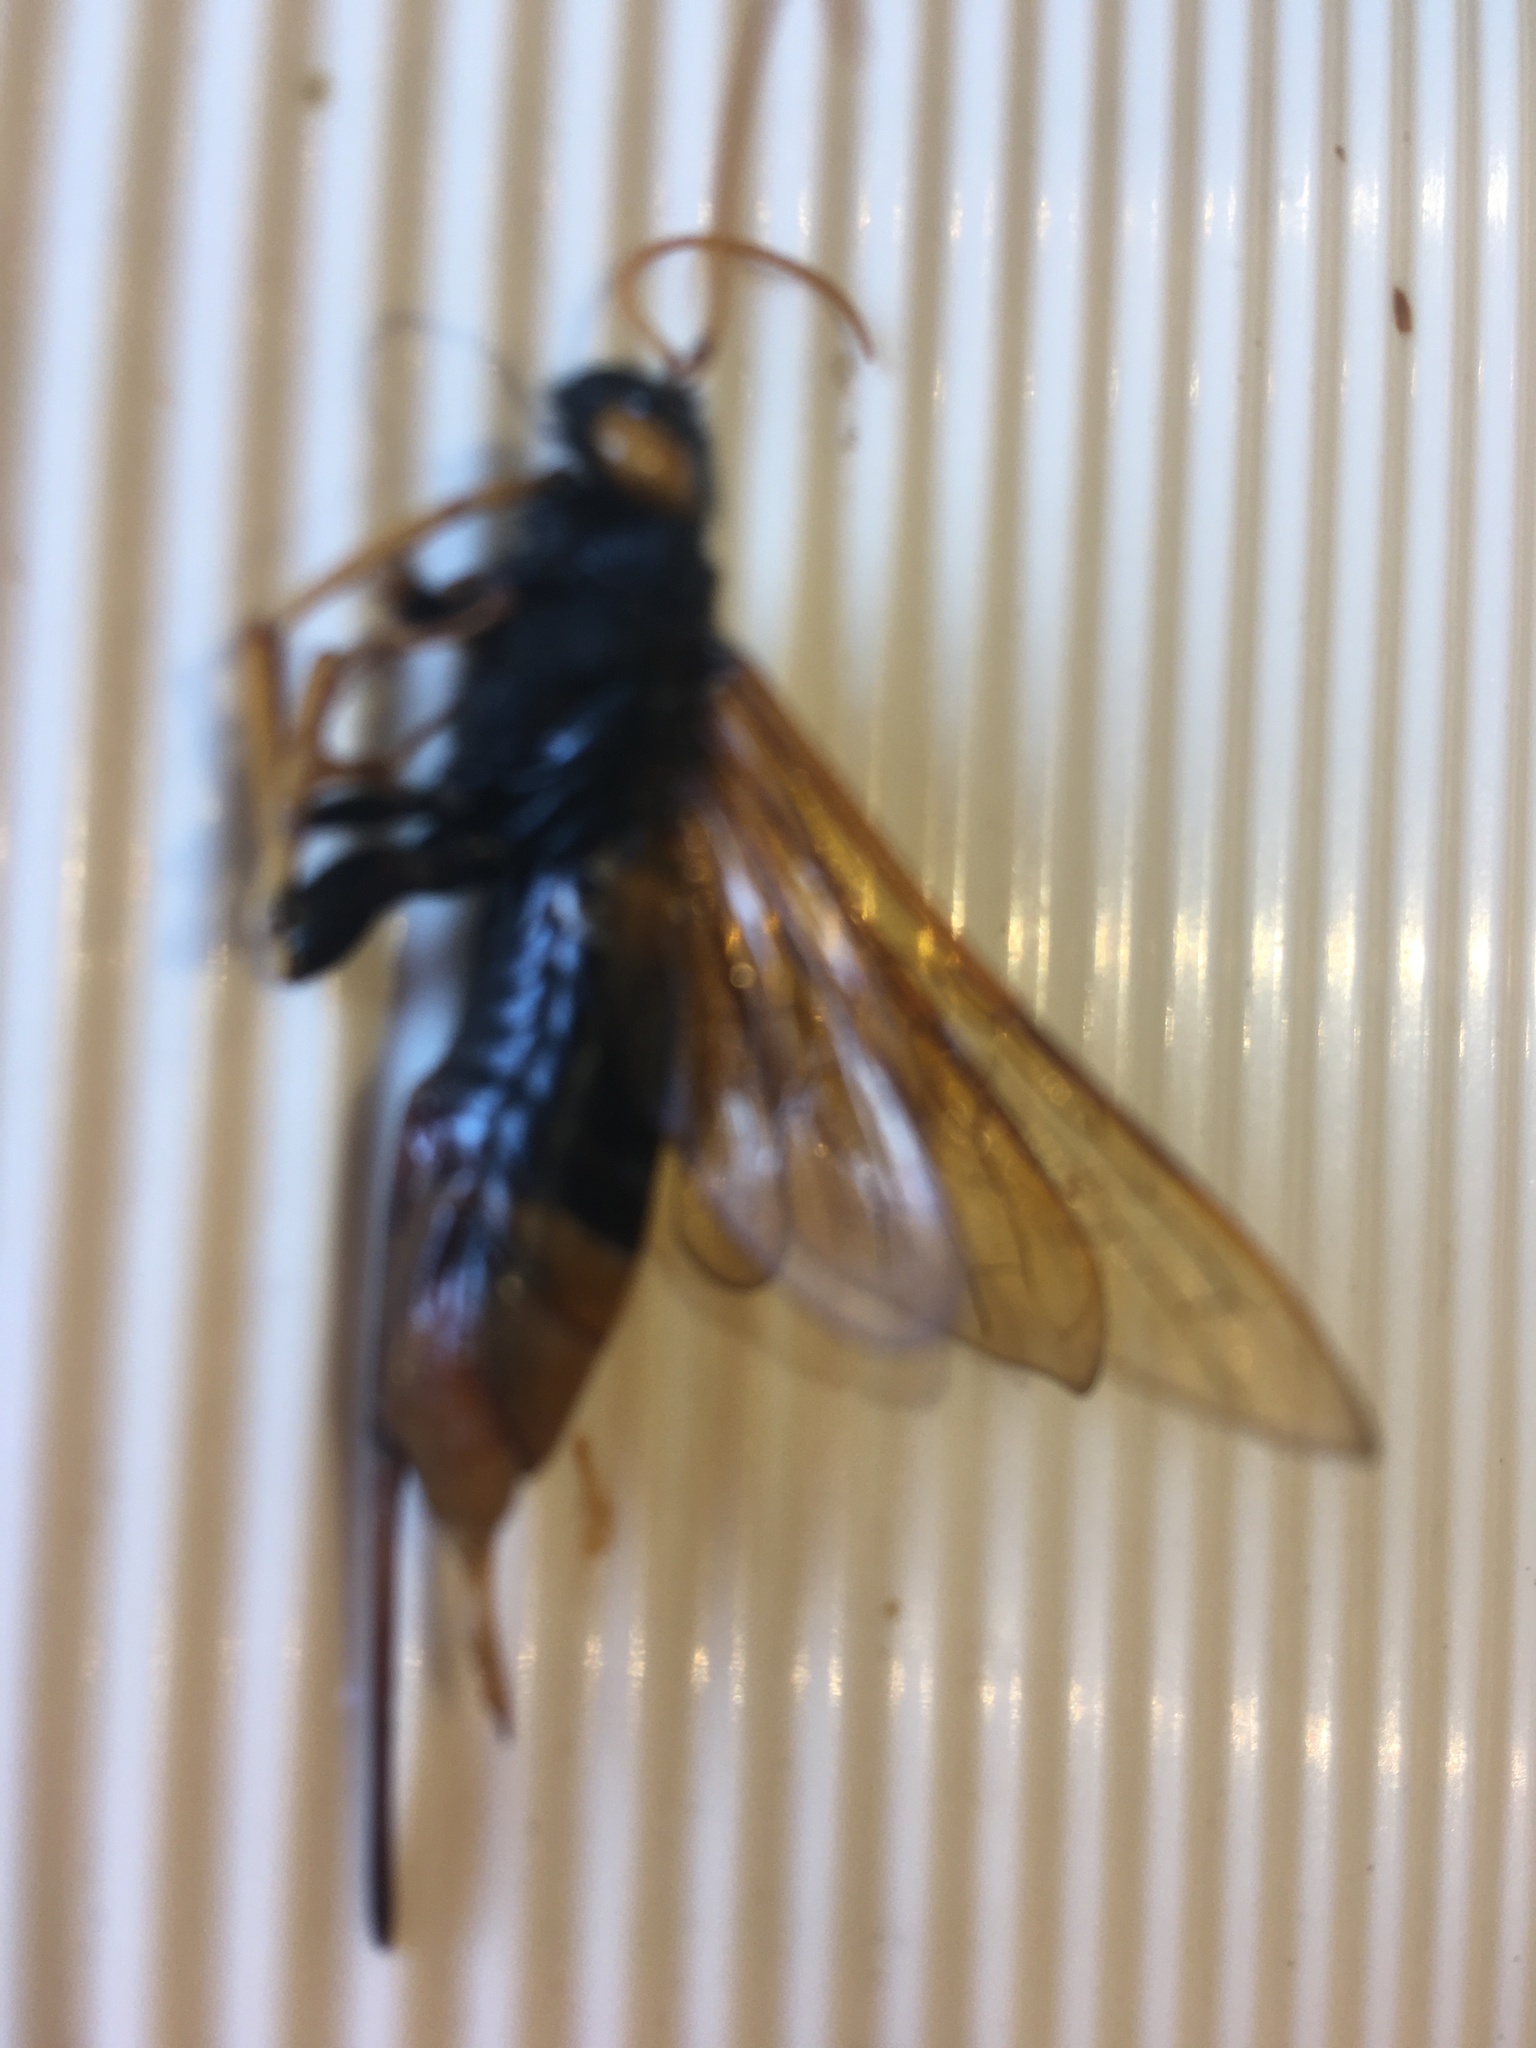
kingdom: Animalia
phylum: Arthropoda
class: Insecta
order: Hymenoptera
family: Siricidae
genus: Urocerus
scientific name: Urocerus gigas
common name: Giant woodwasp
